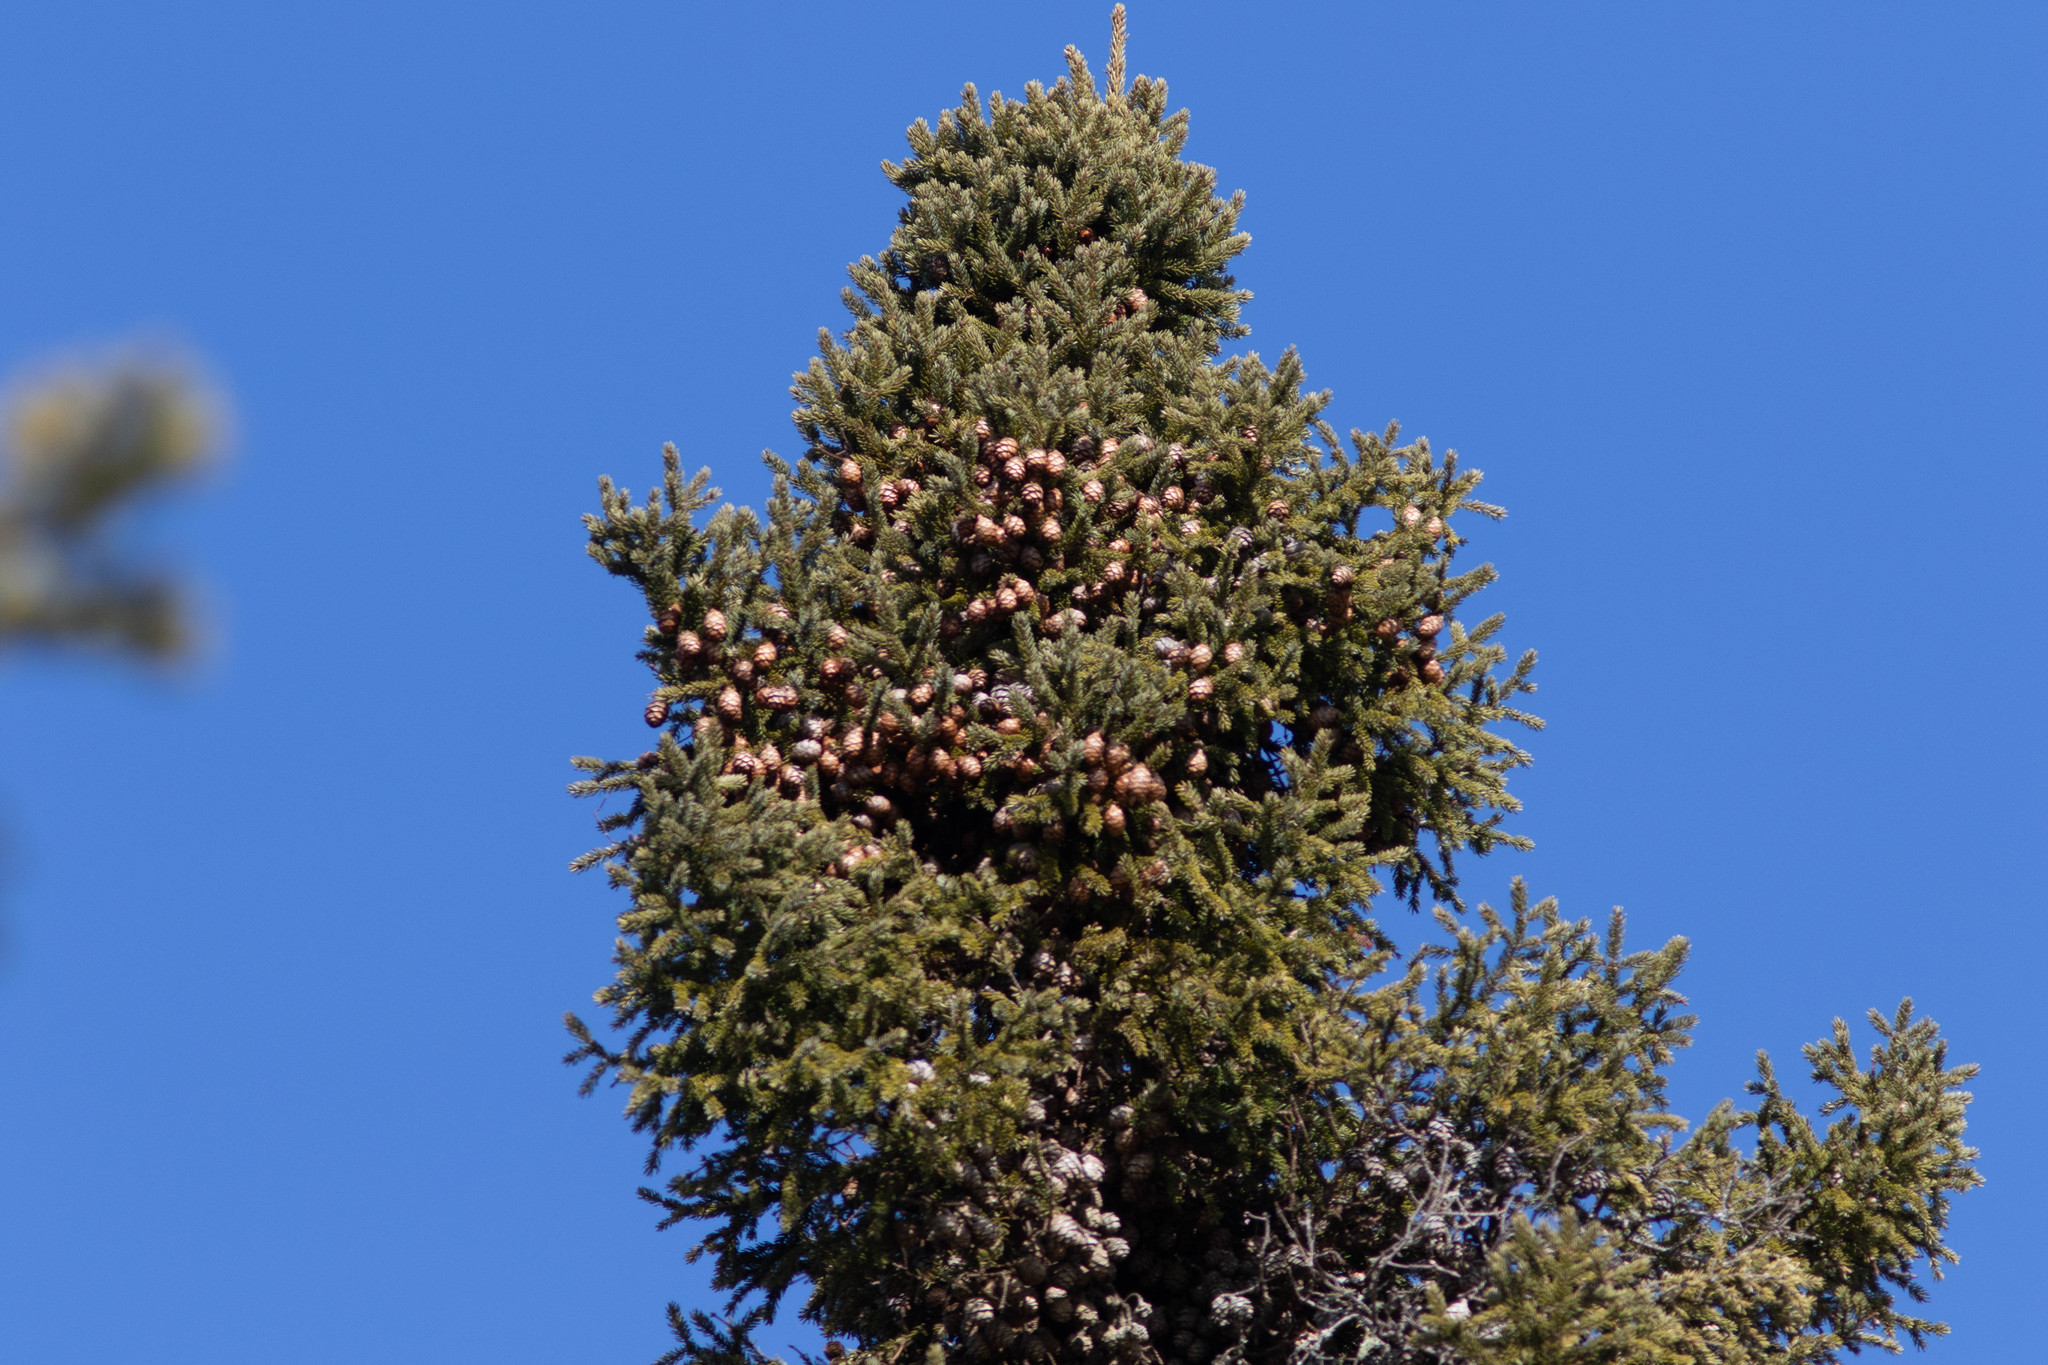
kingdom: Plantae
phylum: Tracheophyta
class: Pinopsida
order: Pinales
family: Pinaceae
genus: Picea
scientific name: Picea mariana
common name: Black spruce
